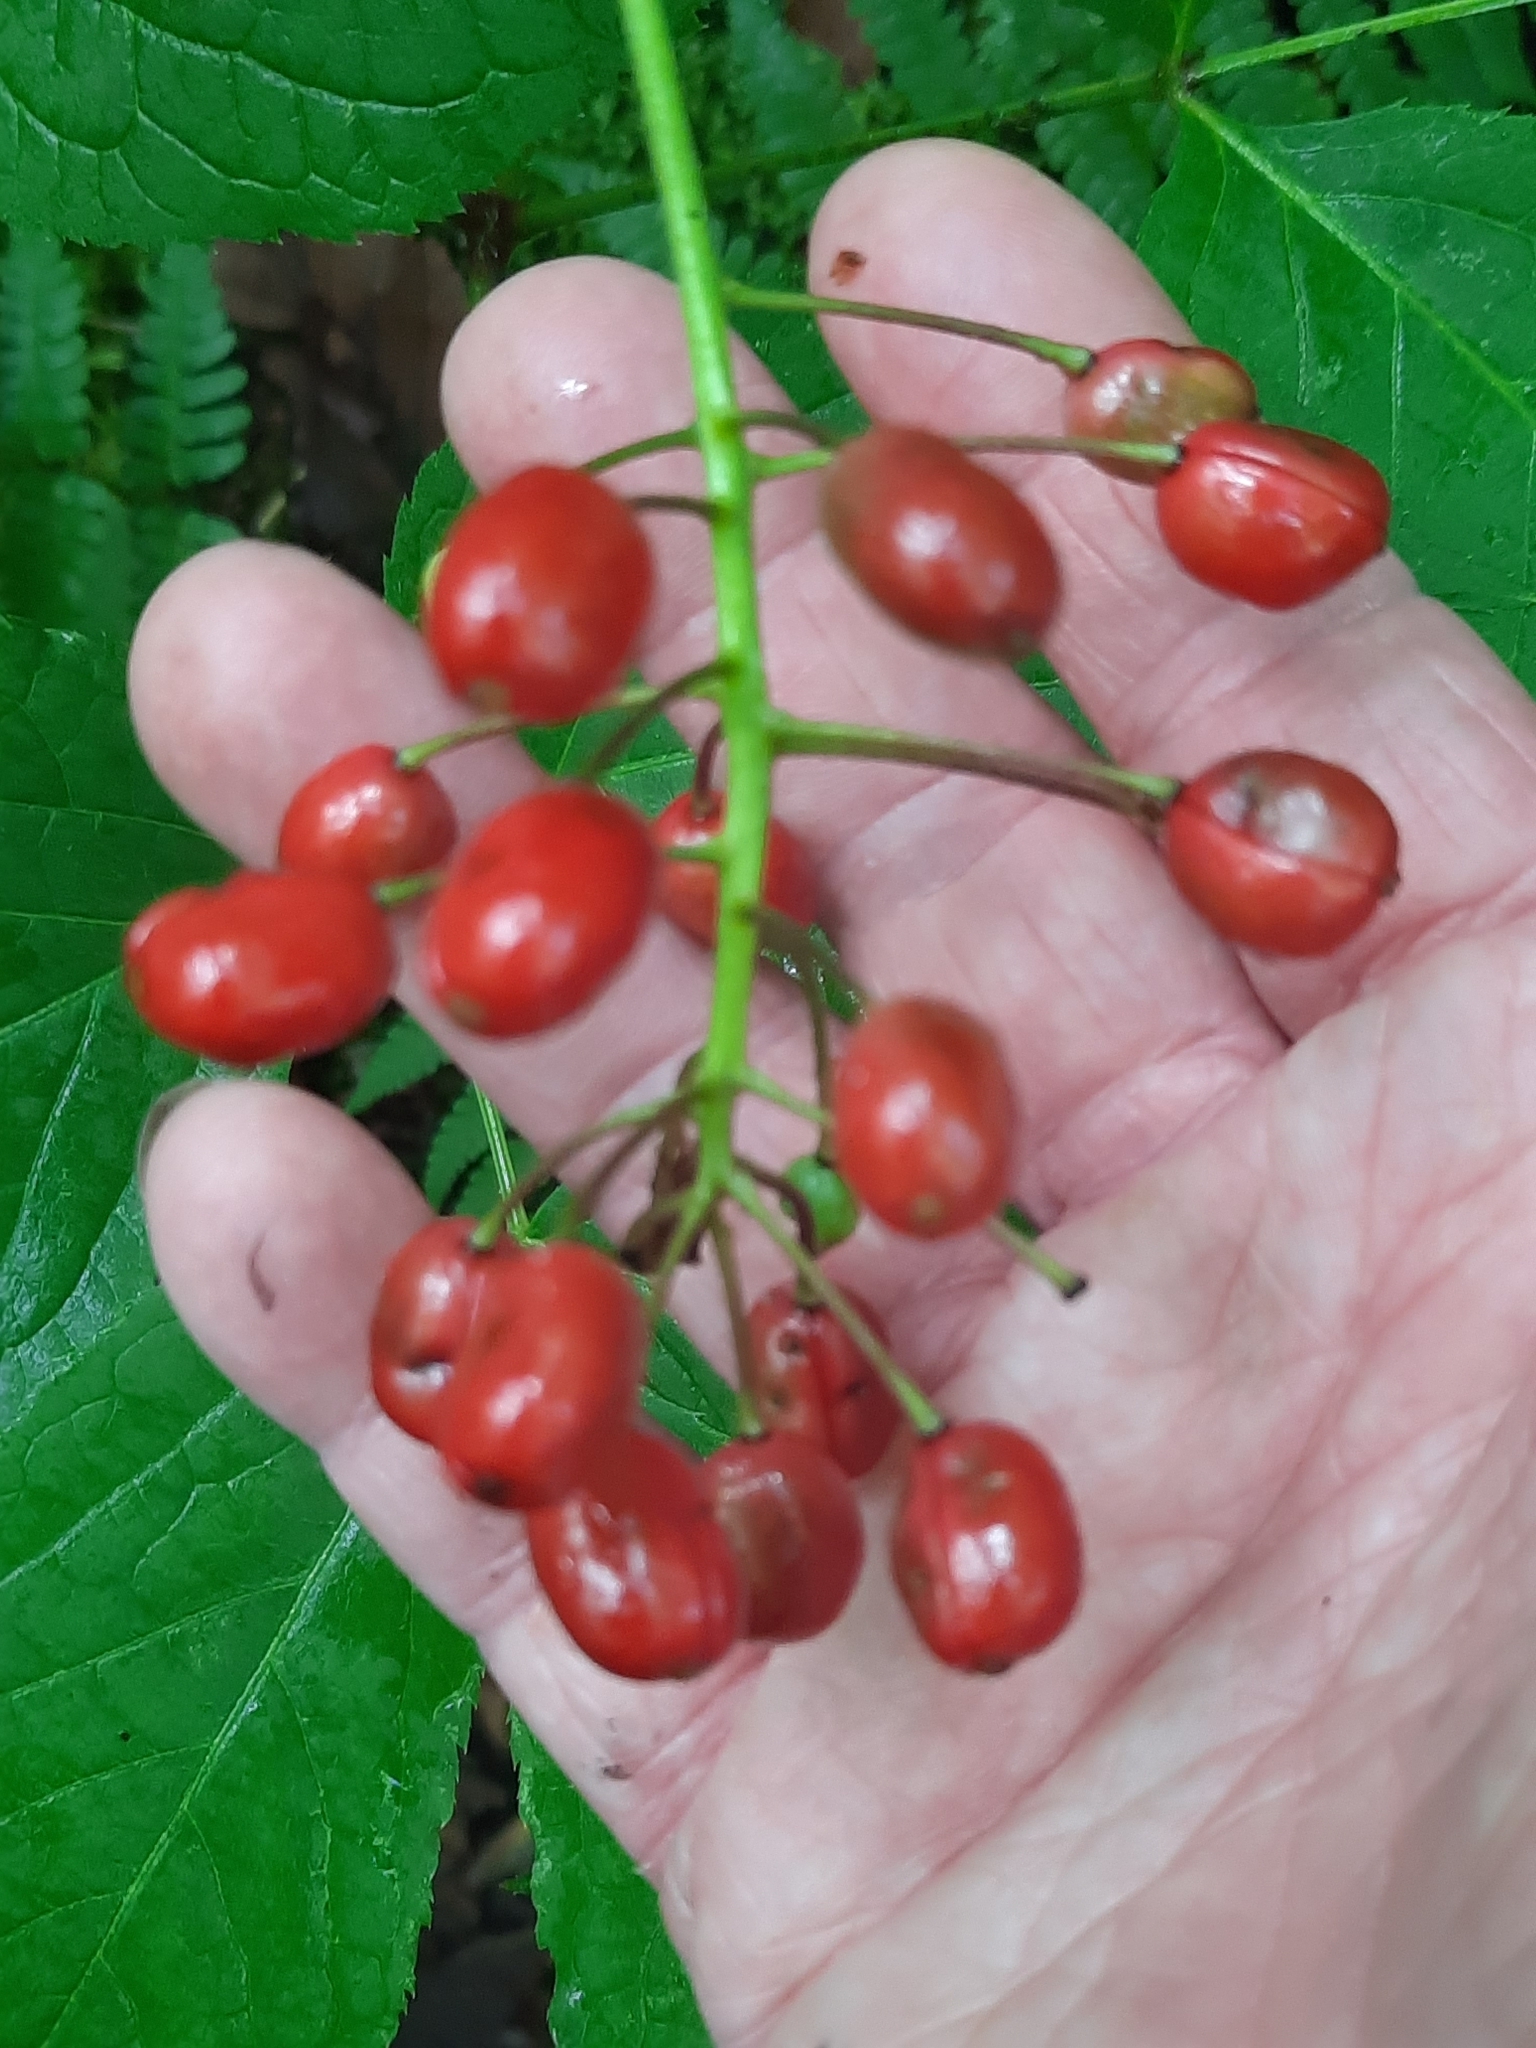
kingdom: Plantae
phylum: Tracheophyta
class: Magnoliopsida
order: Ranunculales
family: Ranunculaceae
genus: Actaea
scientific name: Actaea rubra
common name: Red baneberry
